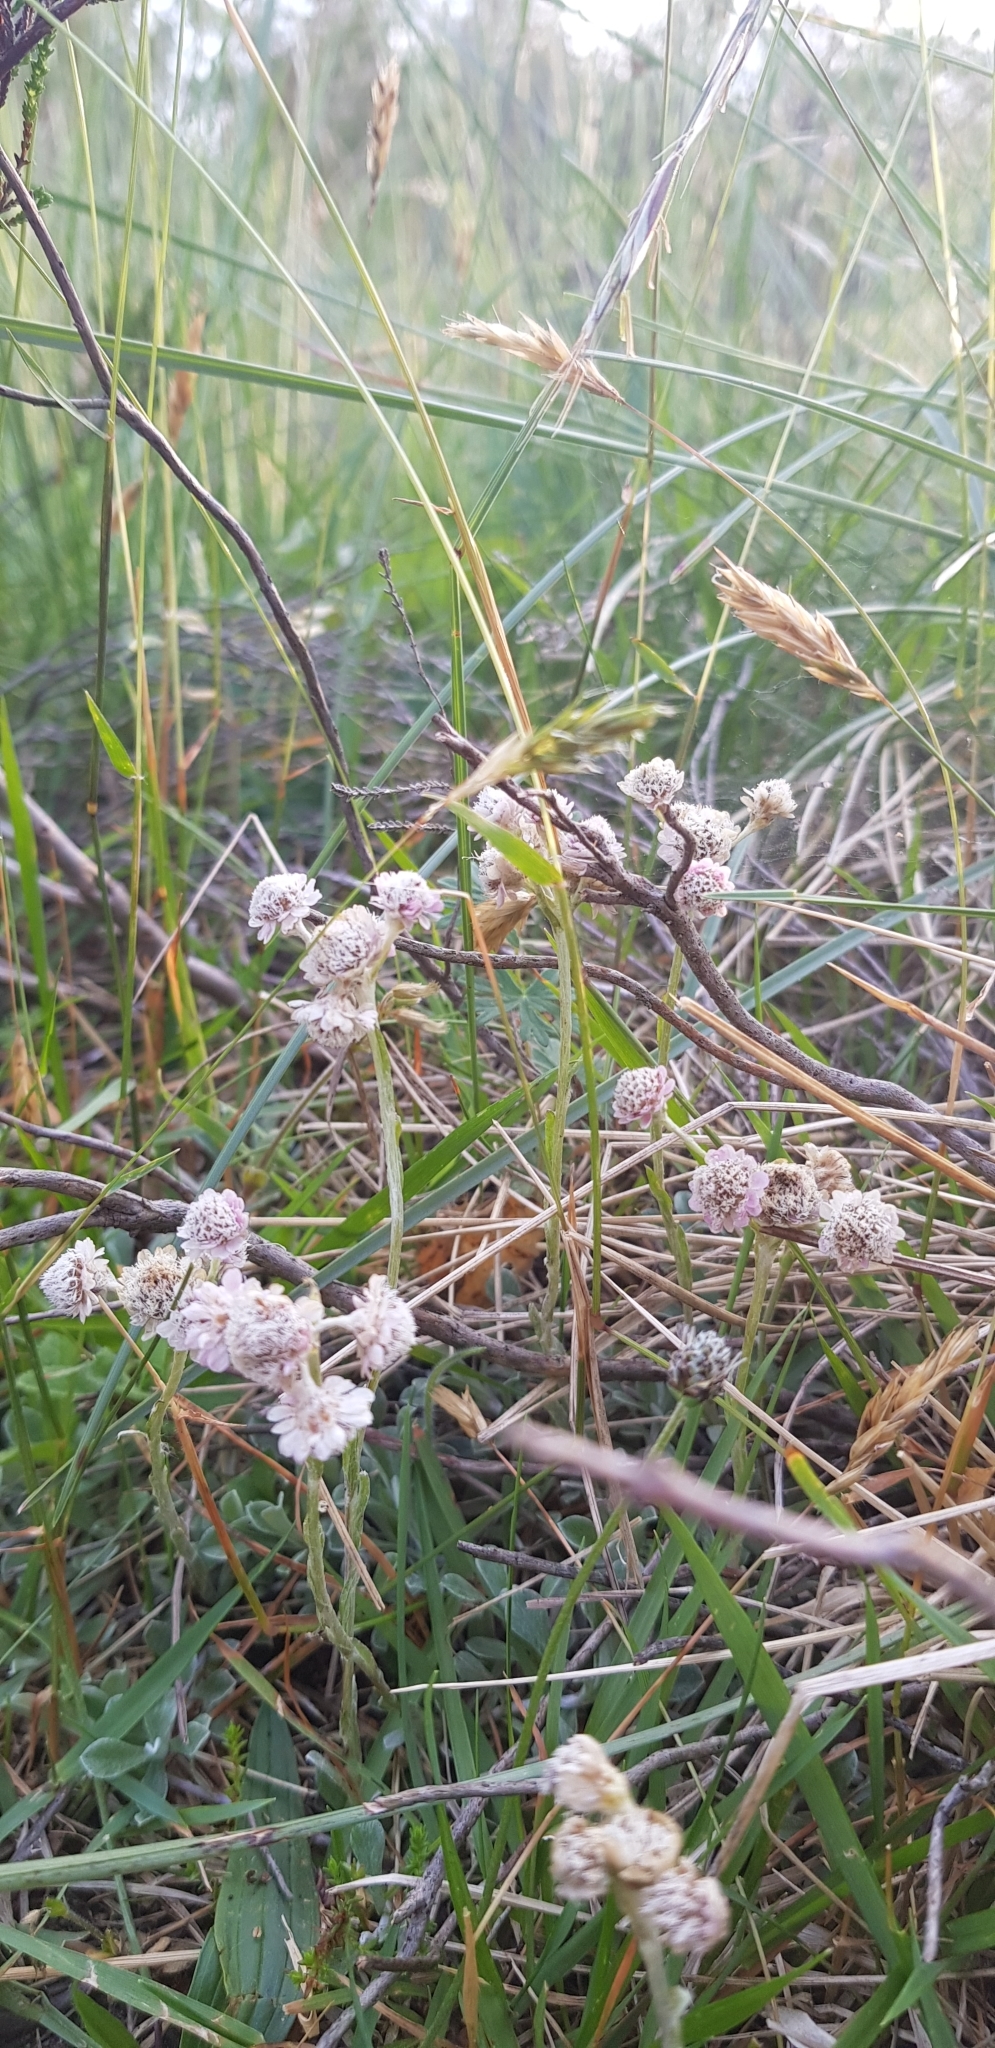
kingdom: Plantae
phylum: Tracheophyta
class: Magnoliopsida
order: Asterales
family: Asteraceae
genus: Antennaria
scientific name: Antennaria dioica
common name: Mountain everlasting
